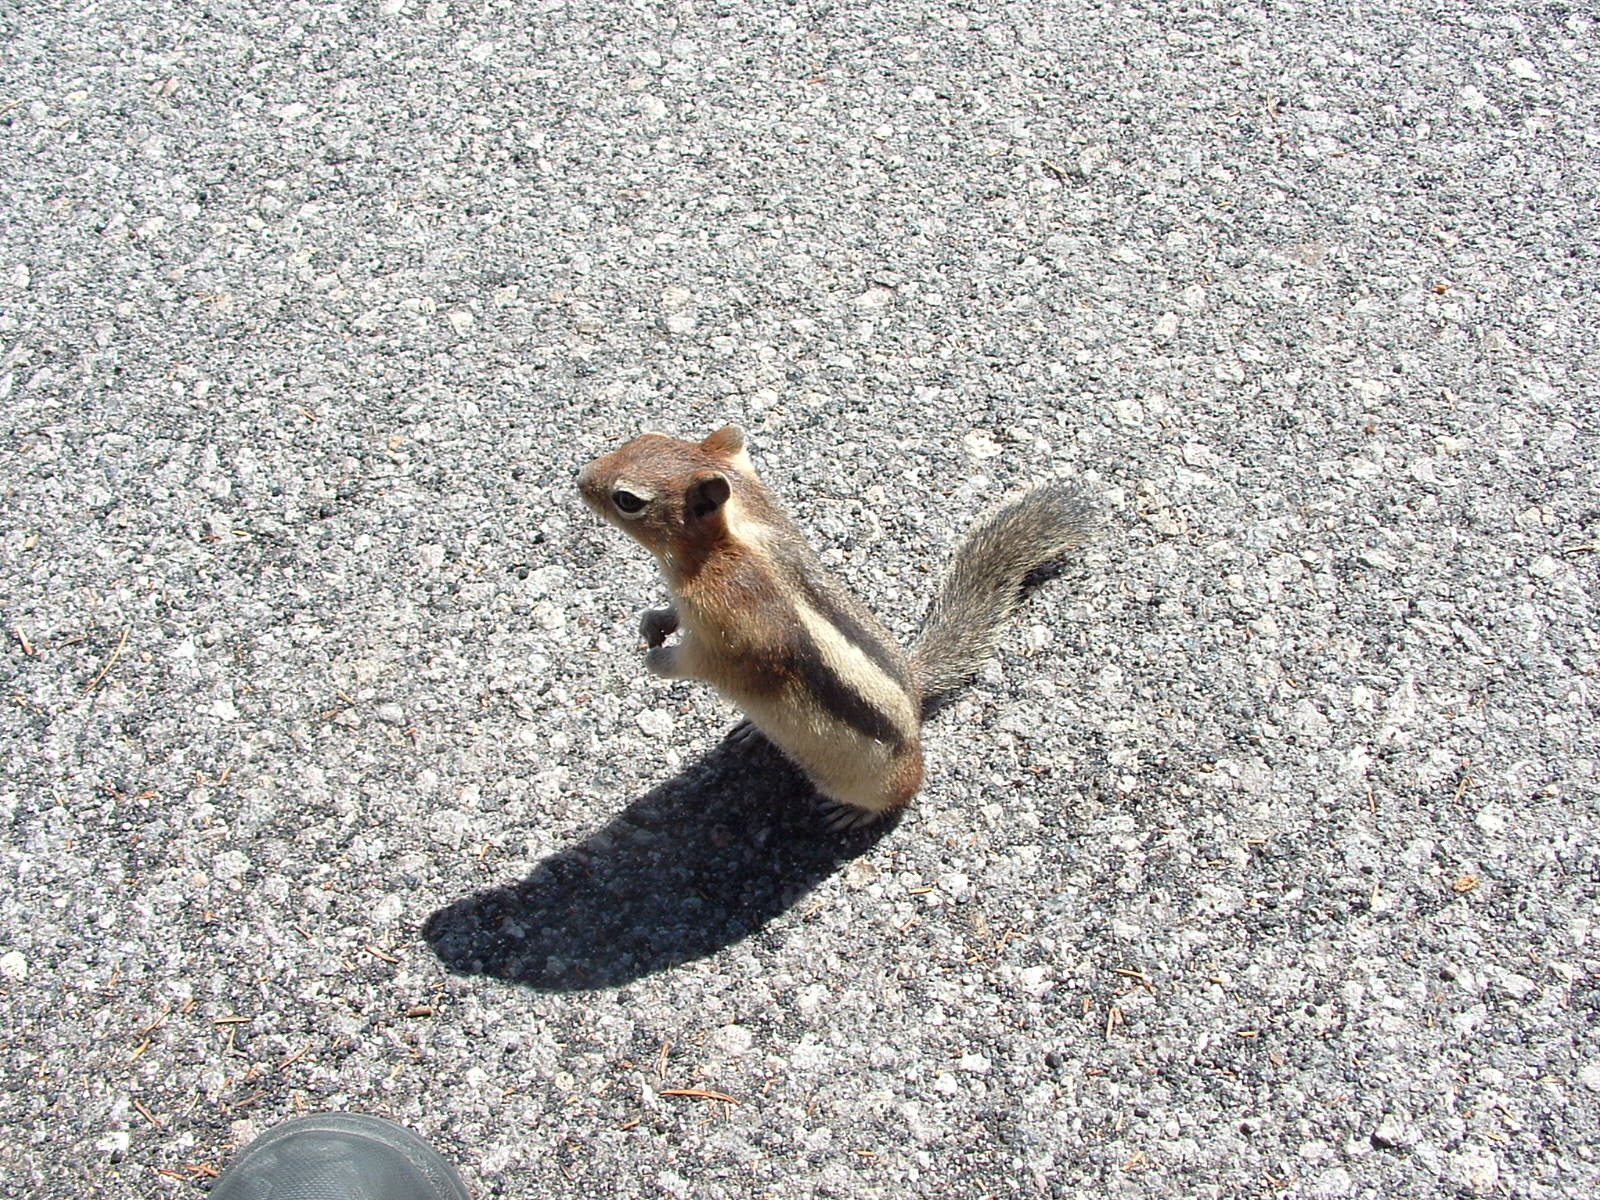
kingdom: Animalia
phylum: Chordata
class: Mammalia
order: Rodentia
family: Sciuridae
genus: Callospermophilus
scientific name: Callospermophilus lateralis
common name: Golden-mantled ground squirrel
